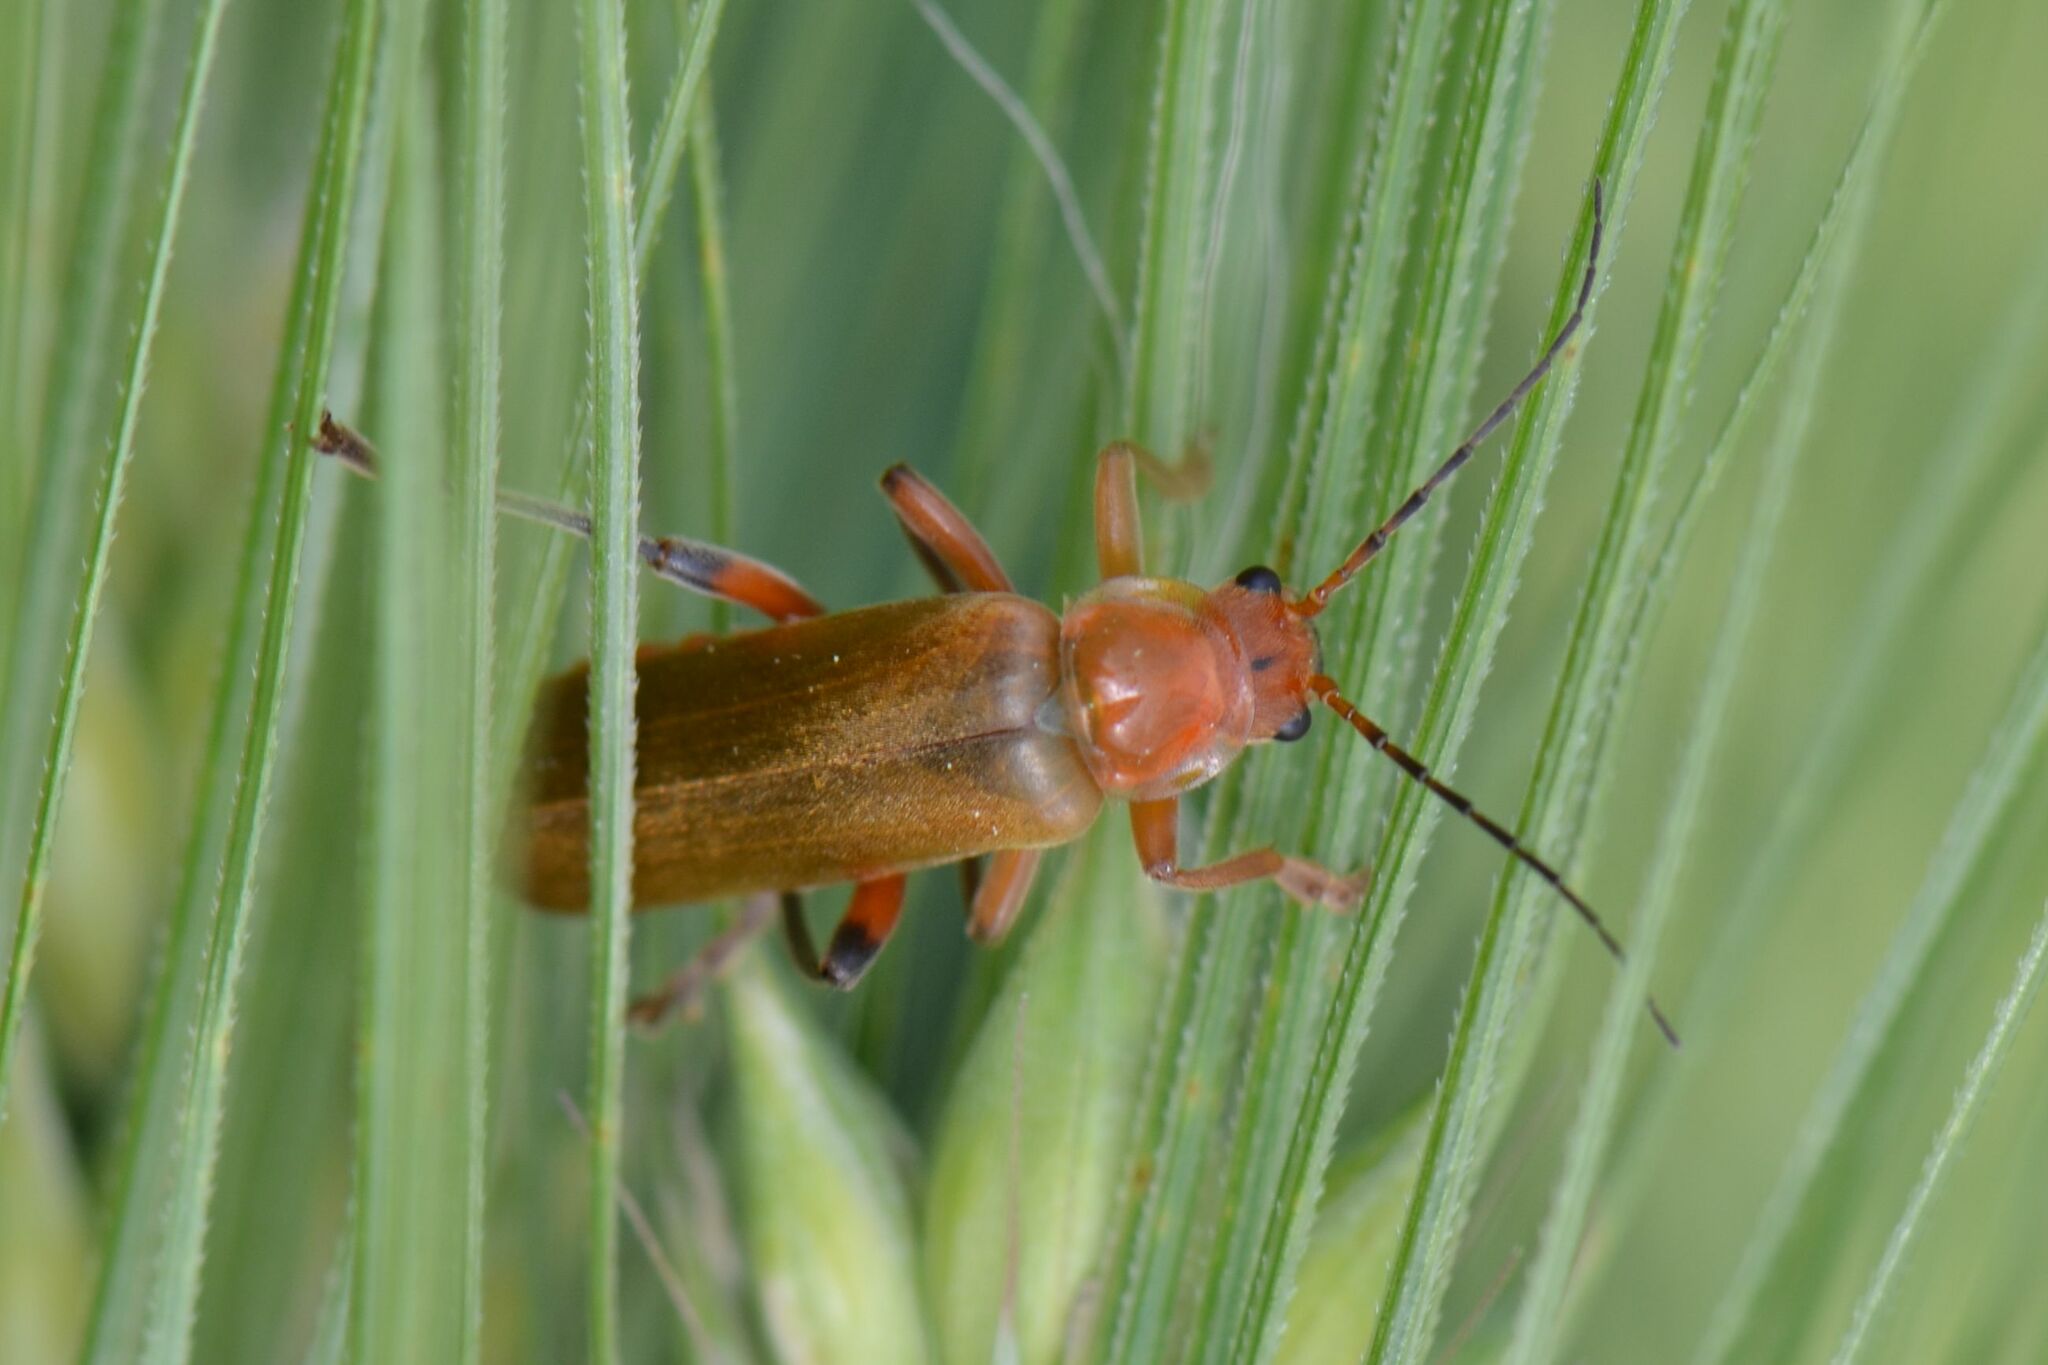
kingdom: Animalia
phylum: Arthropoda
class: Insecta
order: Coleoptera
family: Cantharidae
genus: Cantharis
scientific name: Cantharis livida
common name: Livid soldier beetle
